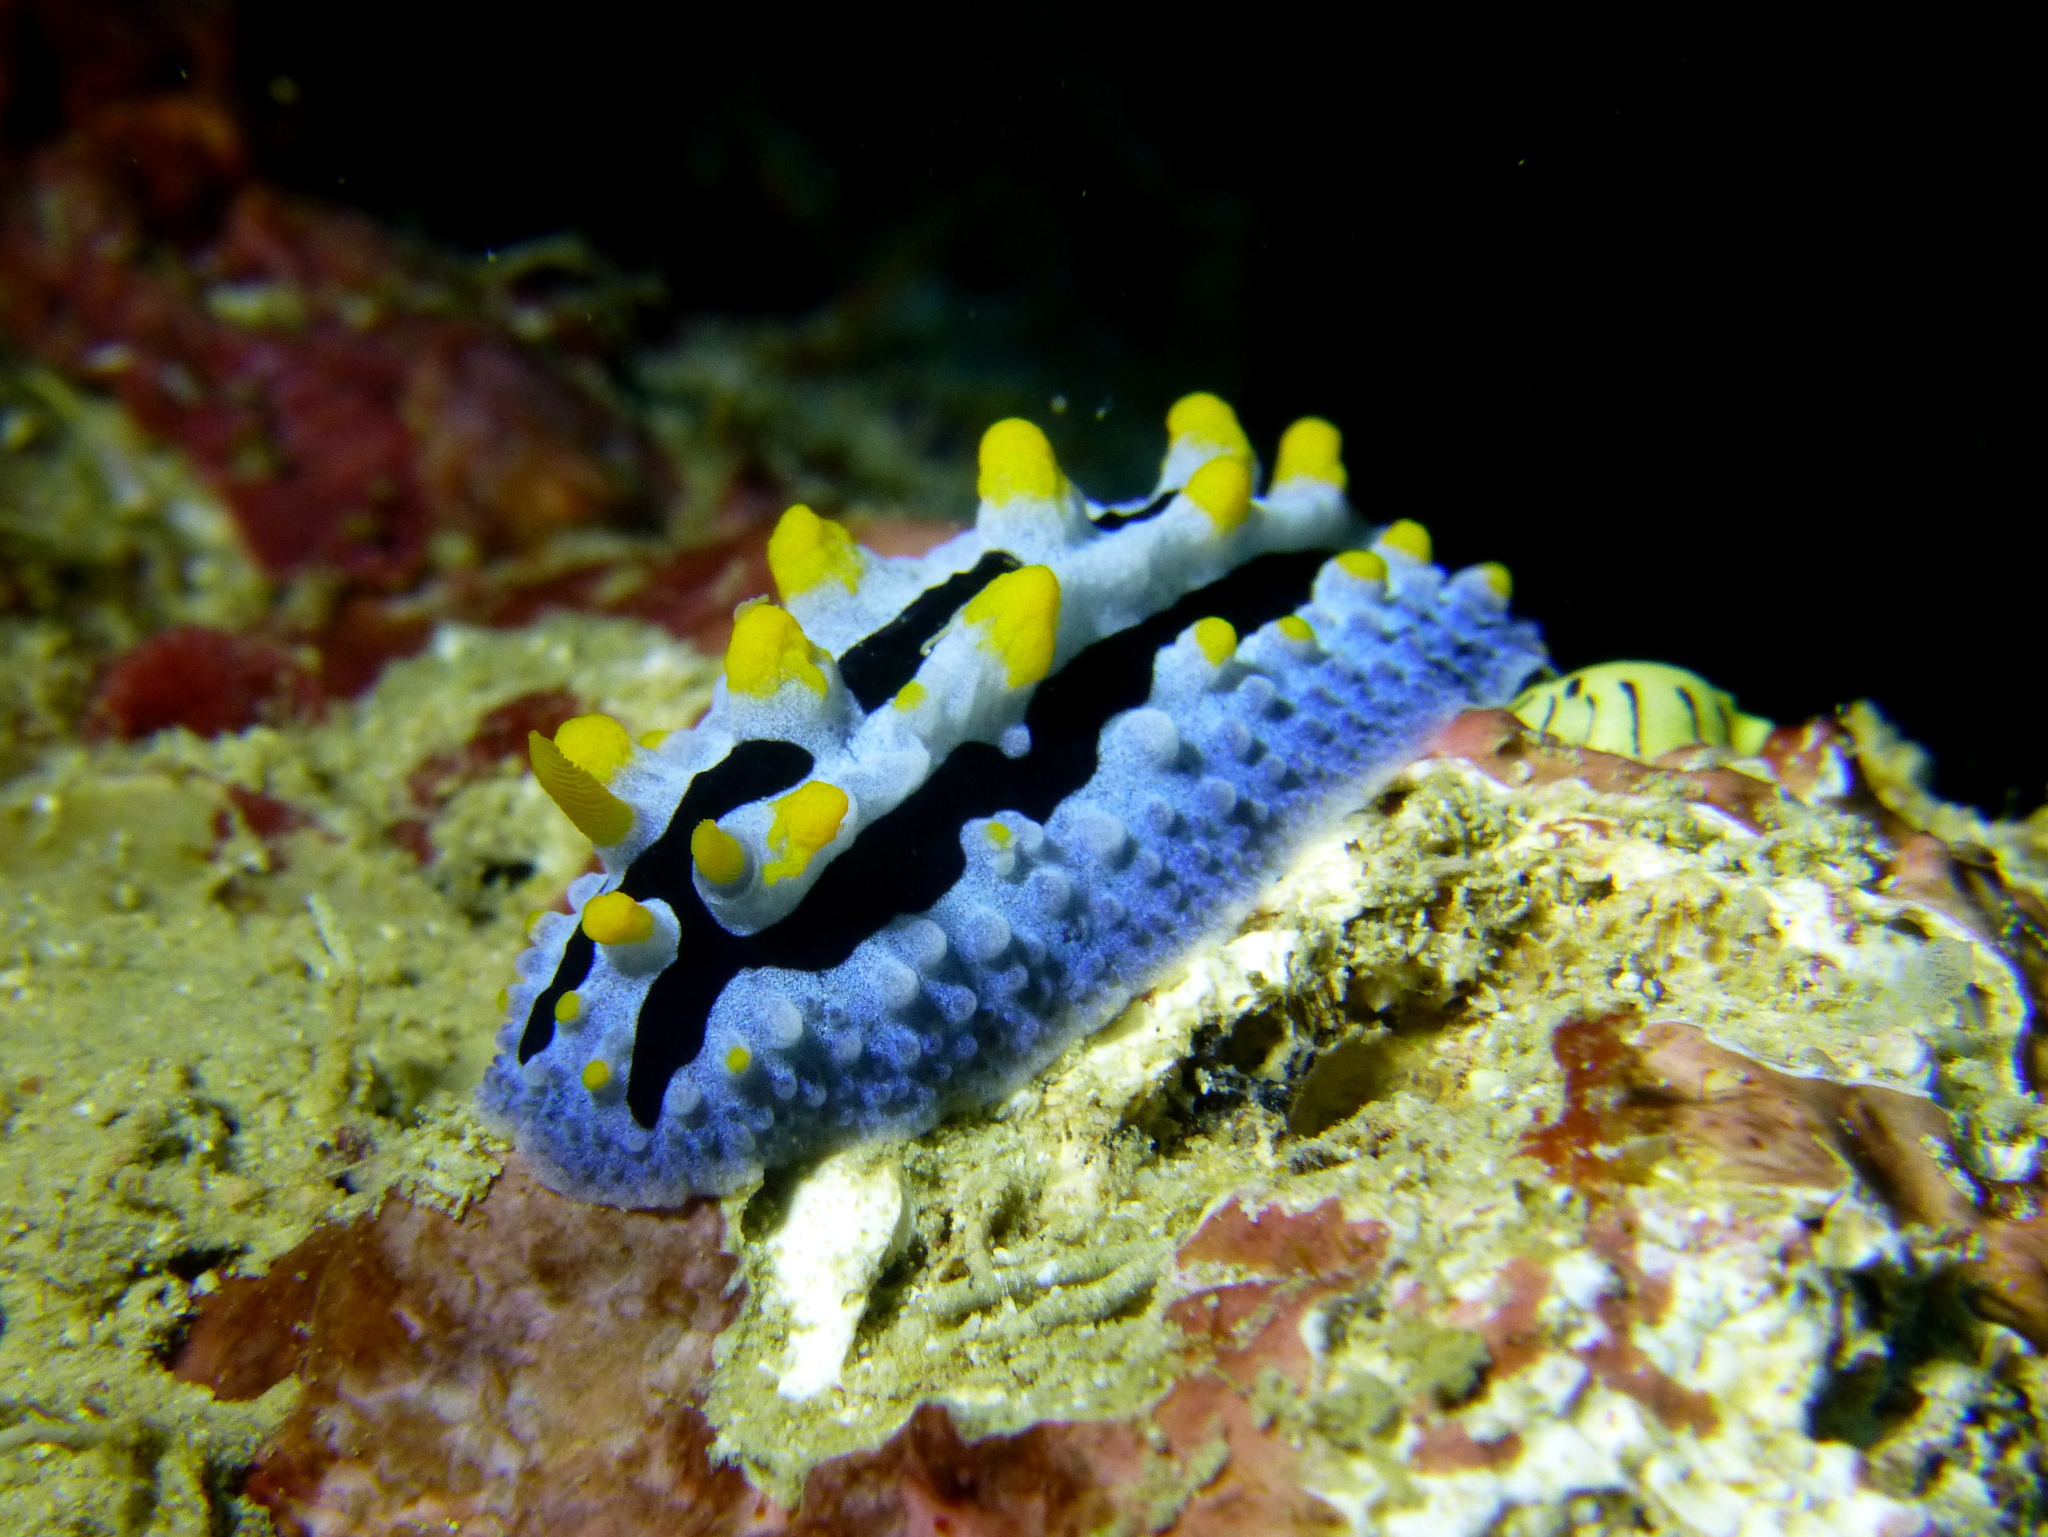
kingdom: Animalia
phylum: Mollusca
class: Gastropoda
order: Nudibranchia
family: Phyllidiidae
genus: Phyllidia
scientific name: Phyllidia coelestis
